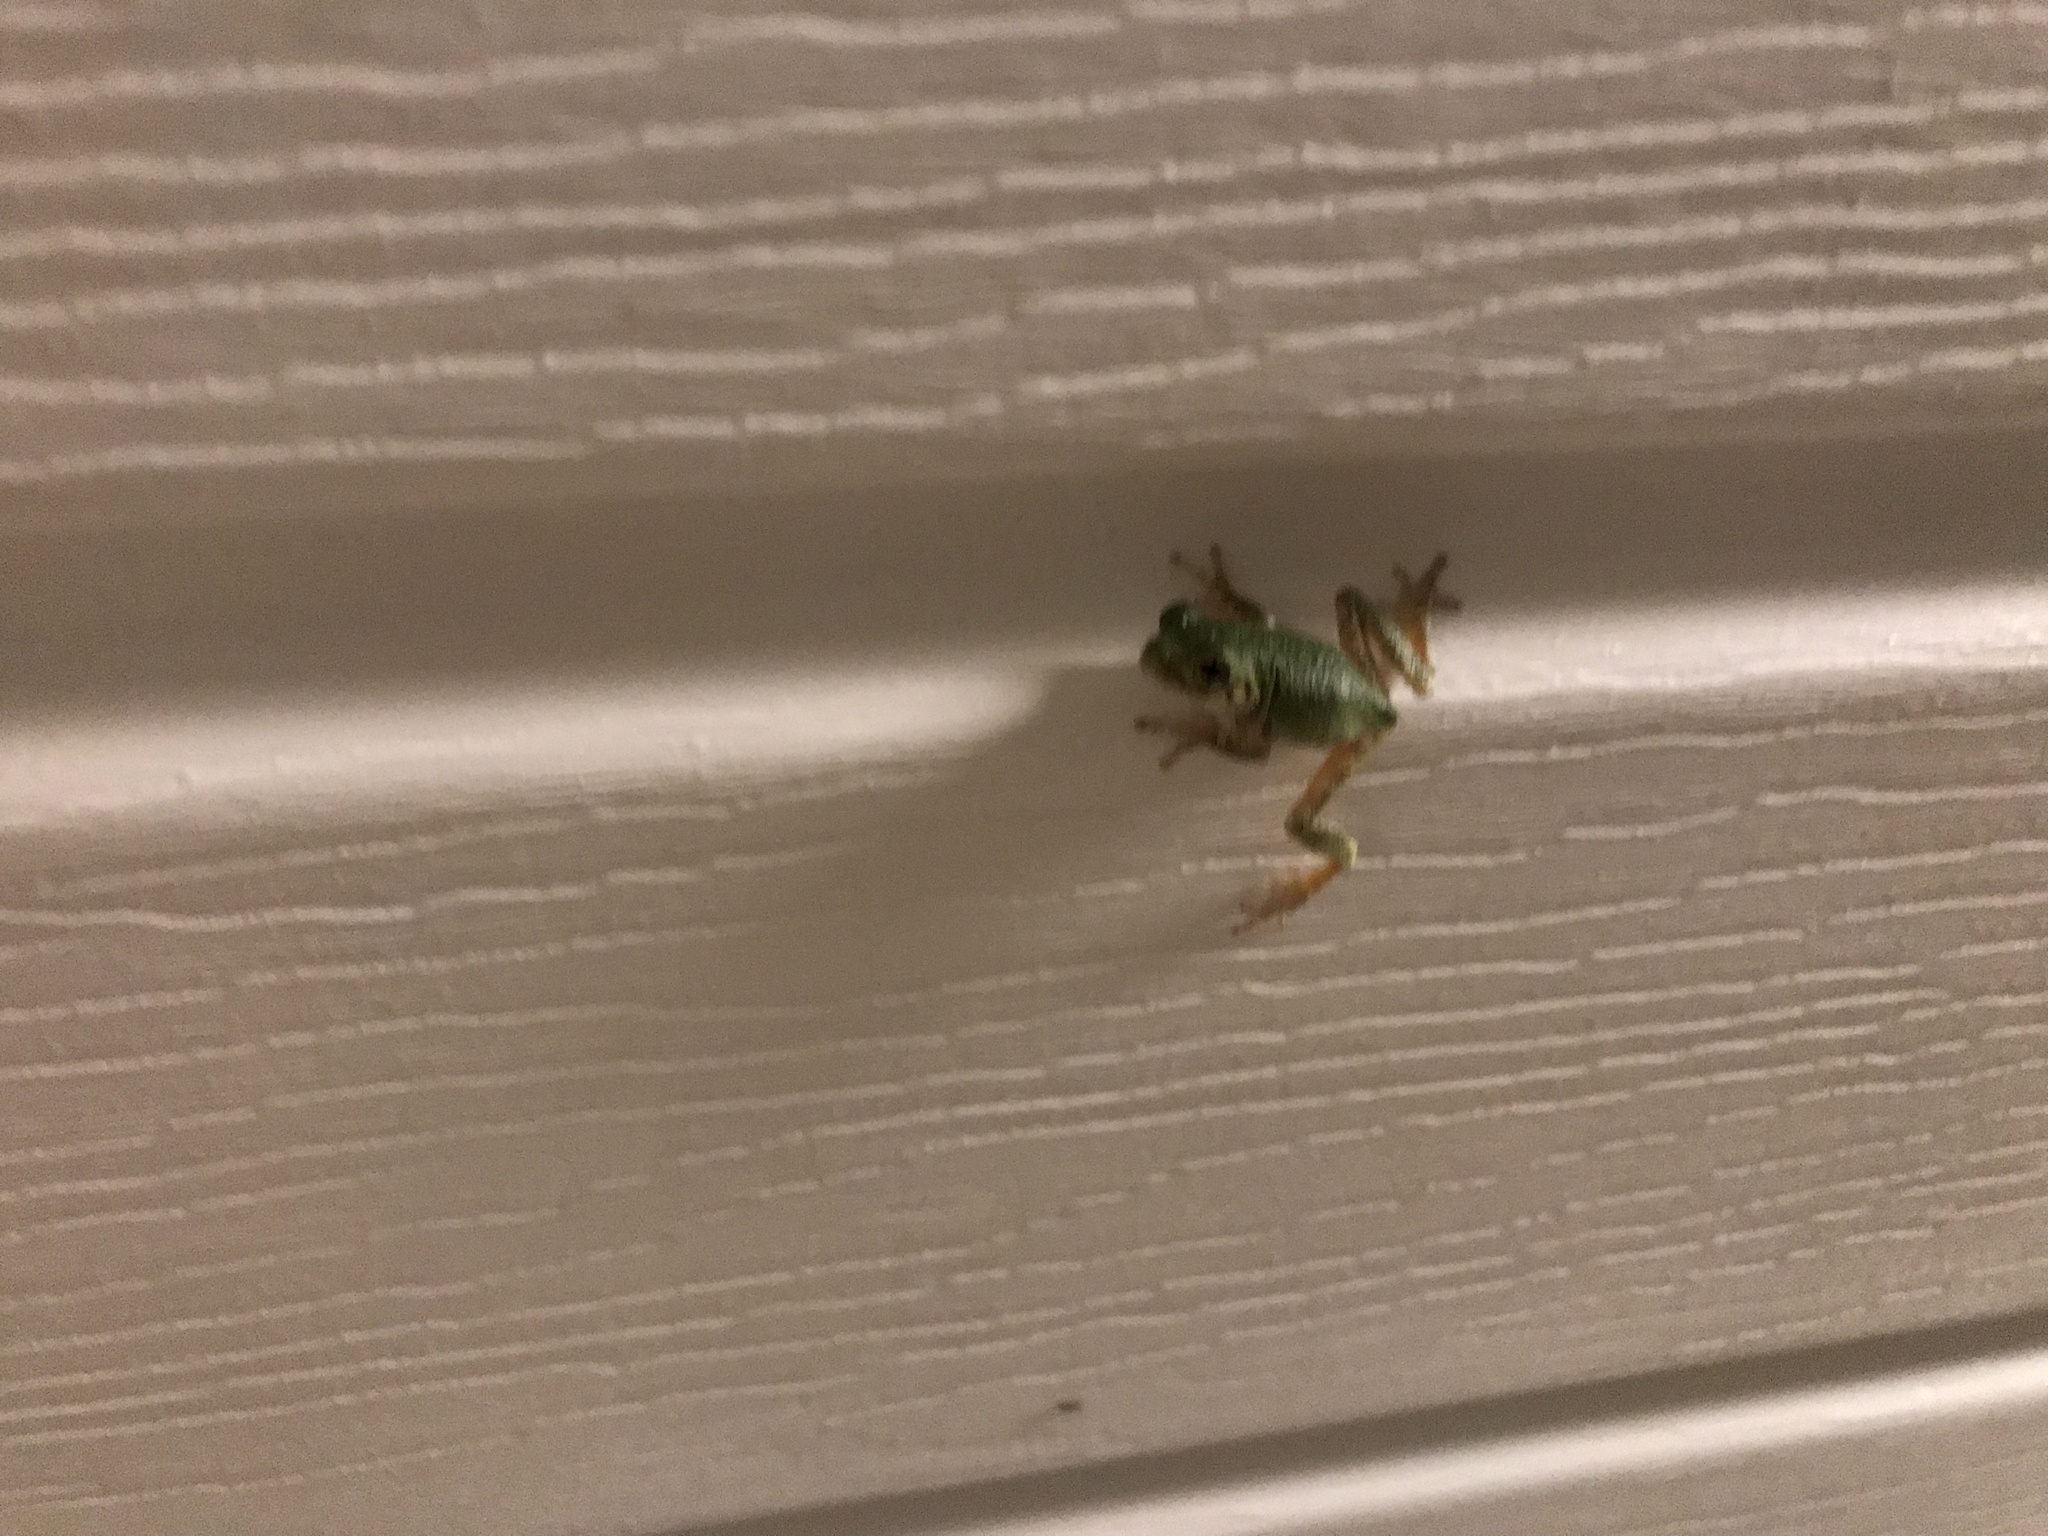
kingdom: Animalia
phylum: Chordata
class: Amphibia
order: Anura
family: Hylidae
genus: Dryophytes
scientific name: Dryophytes chrysoscelis
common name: Cope's gray treefrog
